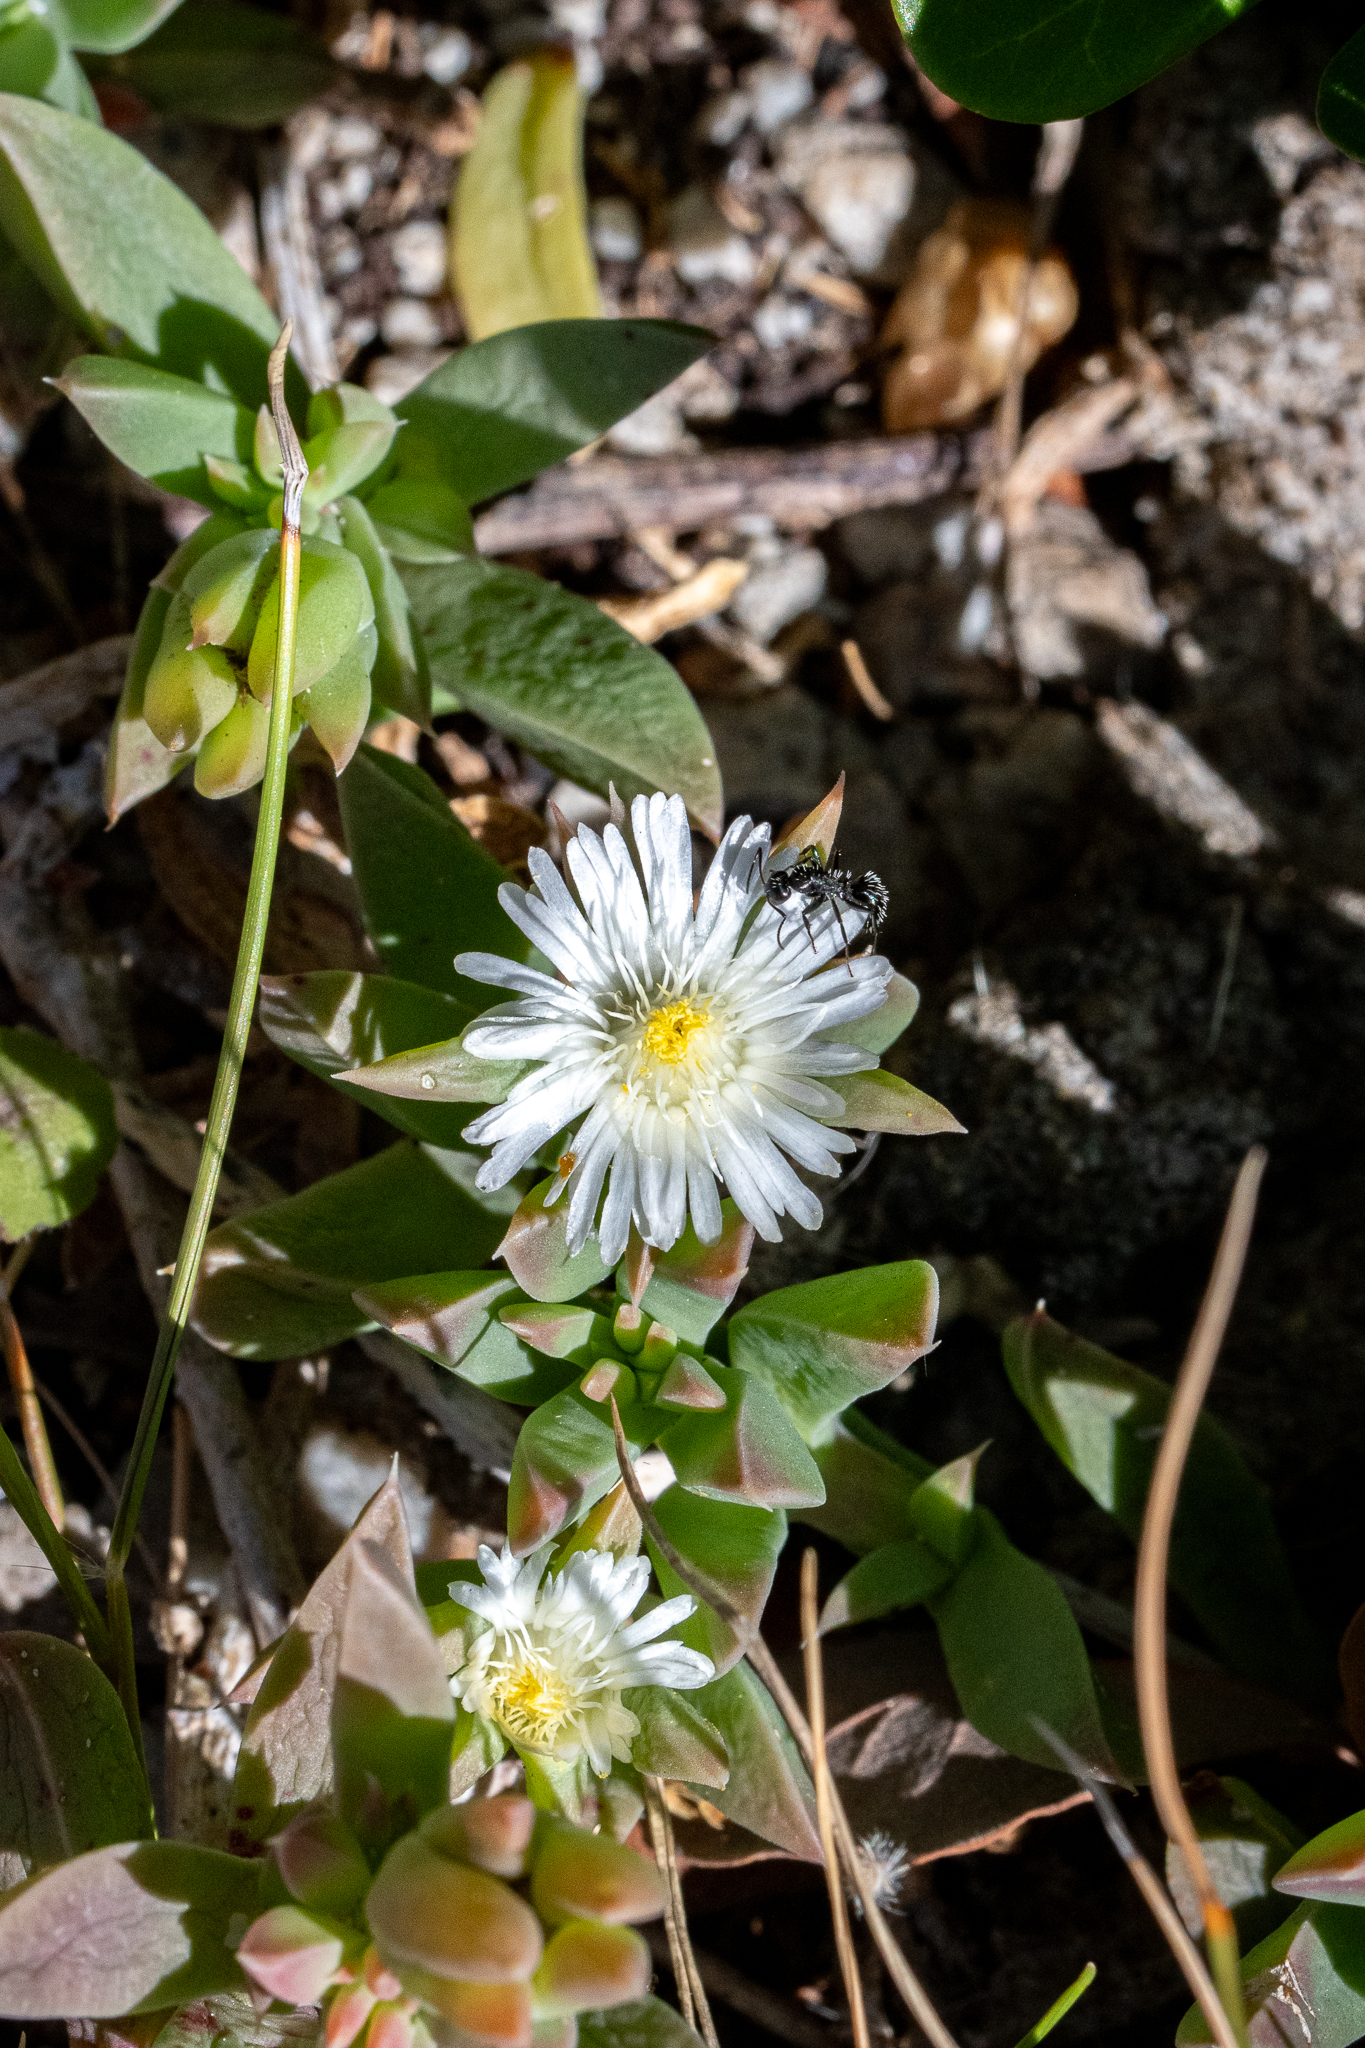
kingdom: Plantae
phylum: Tracheophyta
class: Magnoliopsida
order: Caryophyllales
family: Aizoaceae
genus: Delosperma
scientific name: Delosperma guthriei
